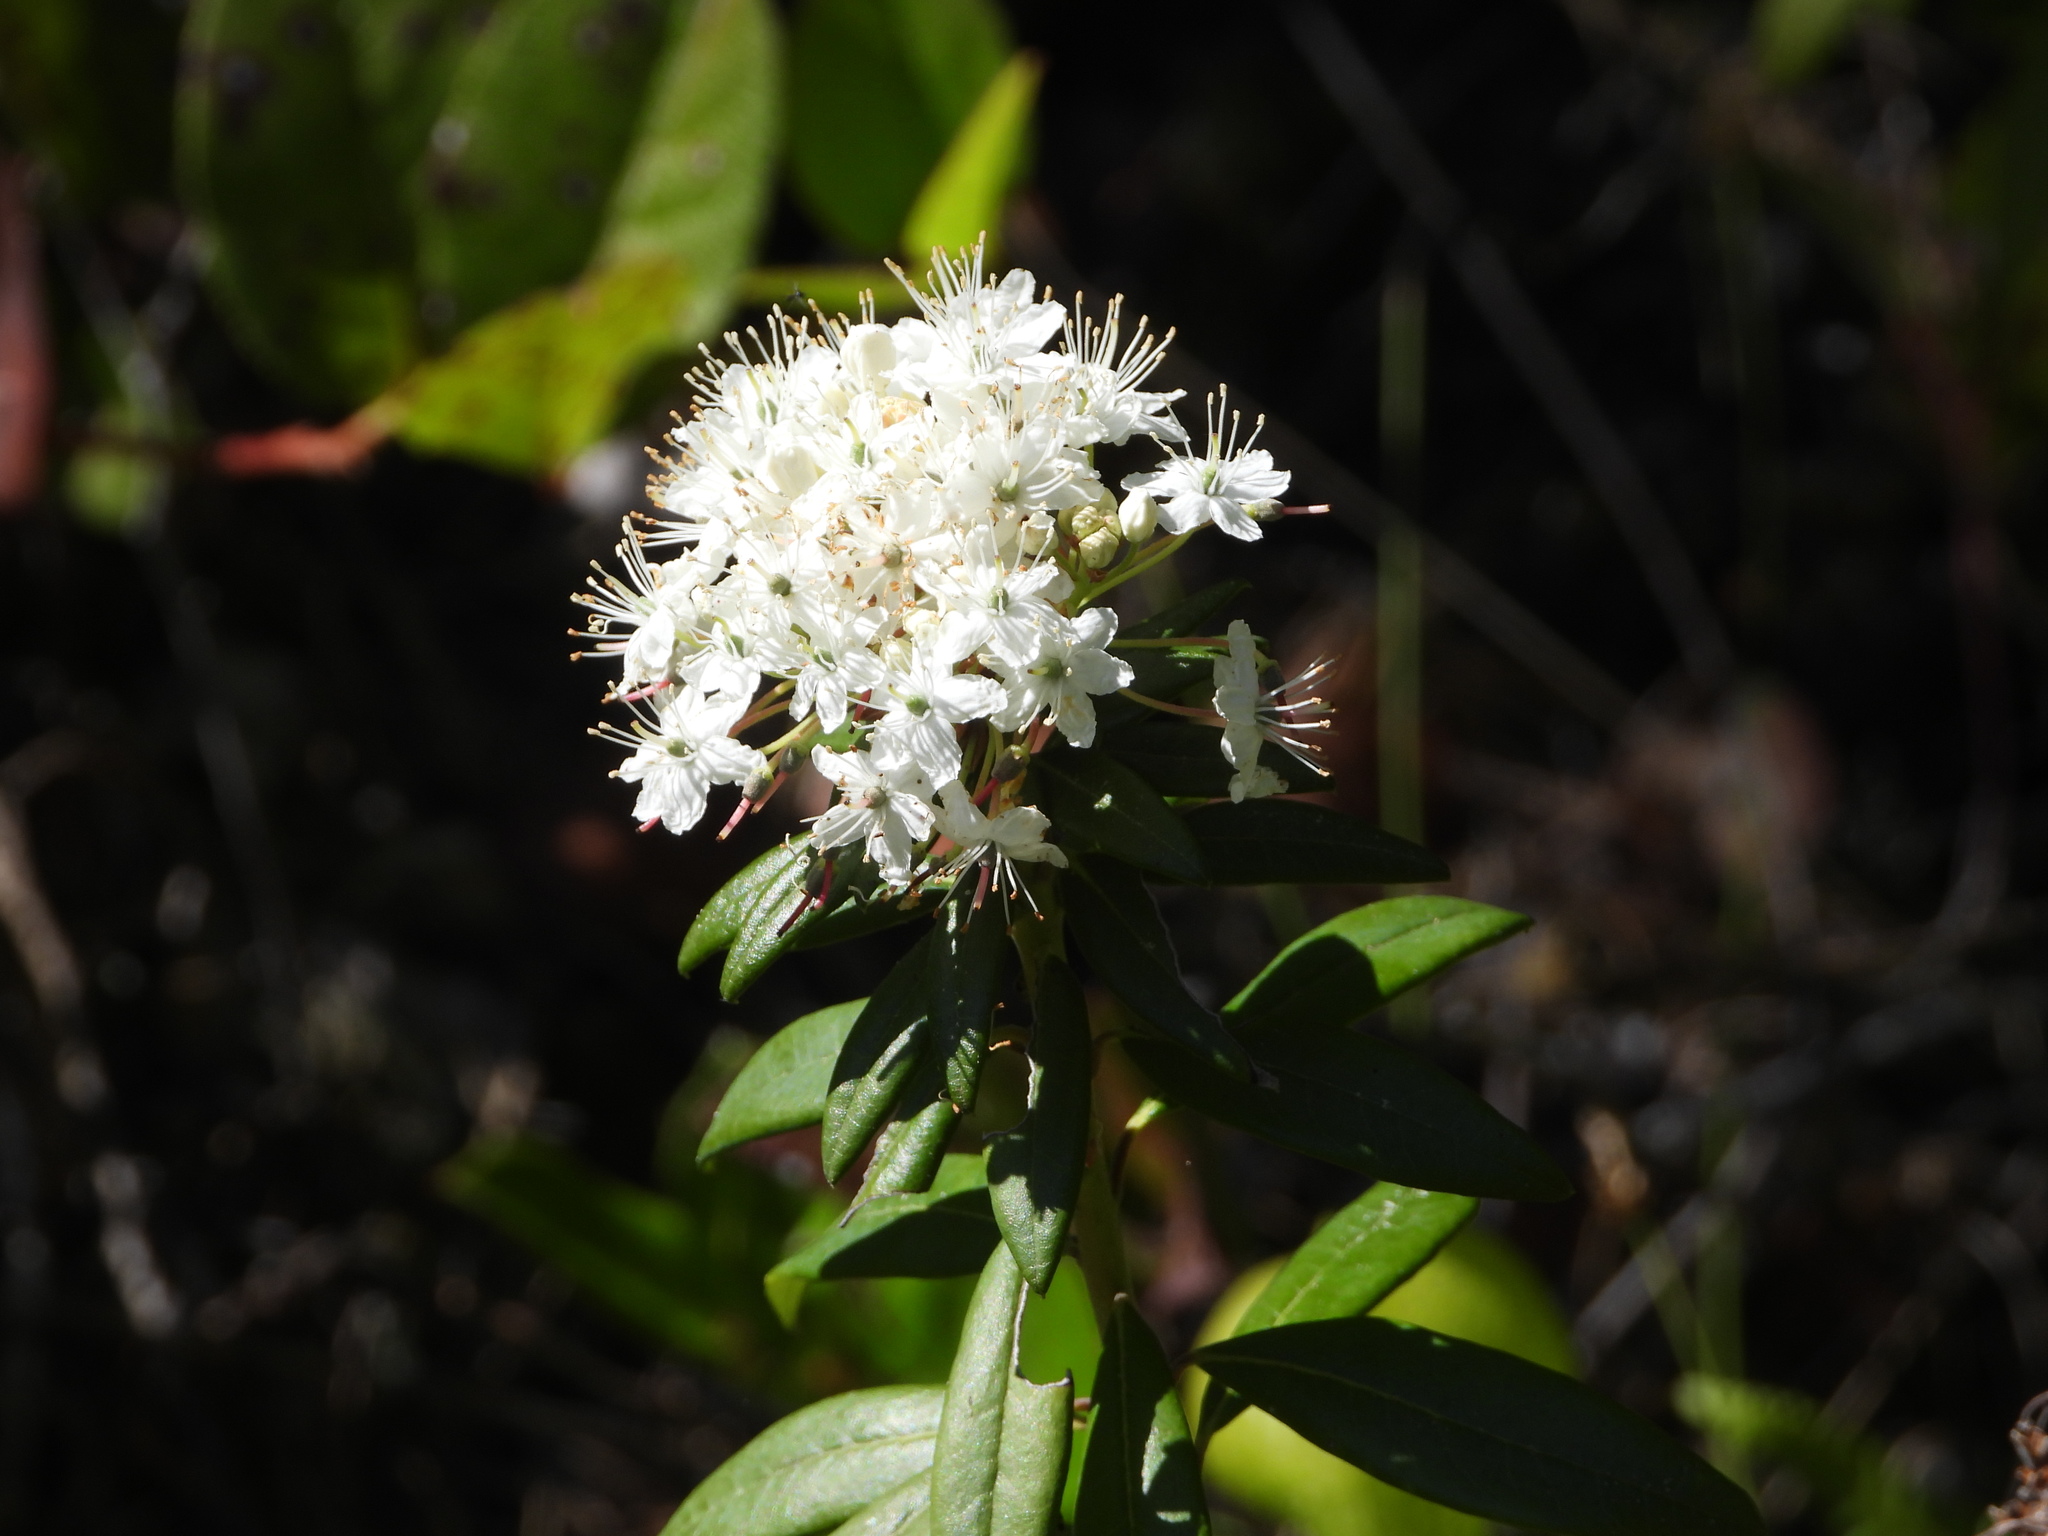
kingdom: Plantae
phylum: Tracheophyta
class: Magnoliopsida
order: Ericales
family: Ericaceae
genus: Rhododendron
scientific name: Rhododendron columbianum
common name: Western labrador tea
